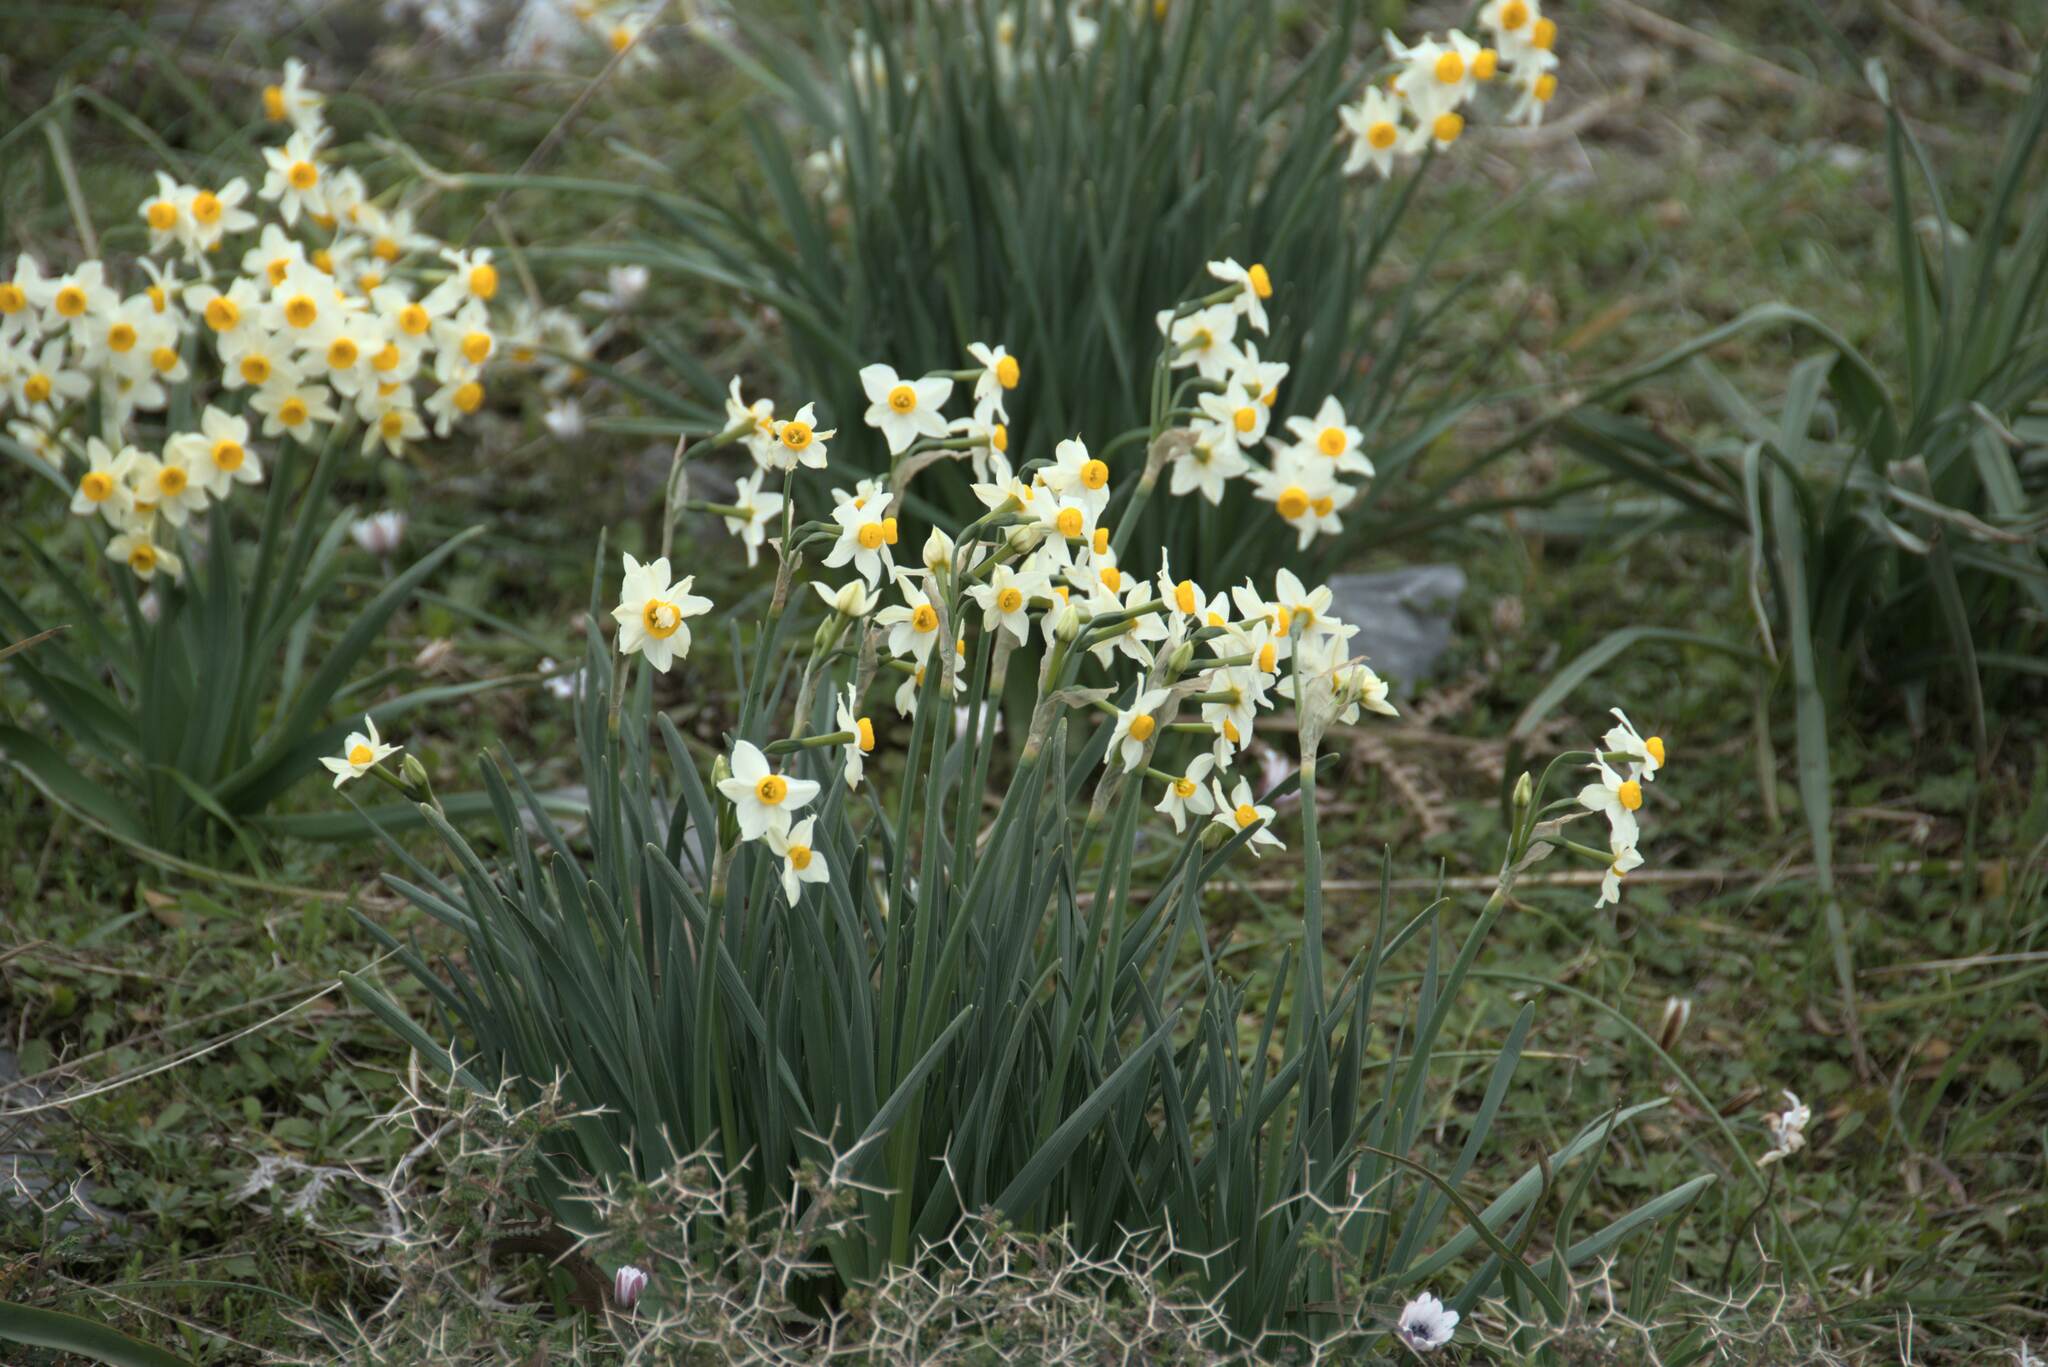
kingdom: Plantae
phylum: Tracheophyta
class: Liliopsida
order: Asparagales
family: Amaryllidaceae
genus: Narcissus
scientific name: Narcissus tazetta
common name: Bunch-flowered daffodil
